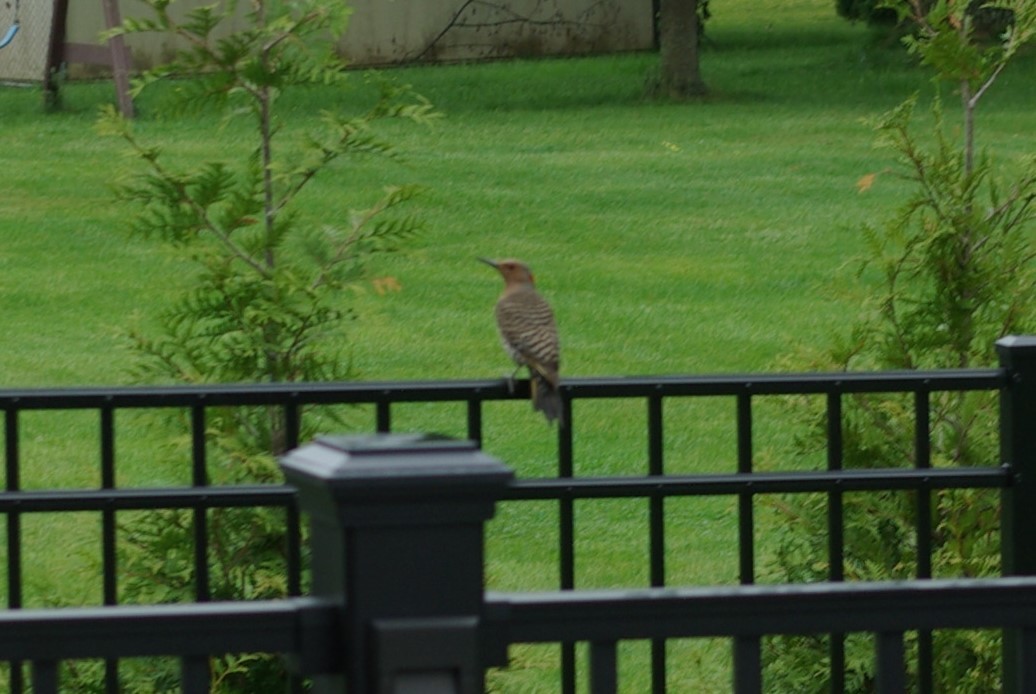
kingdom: Animalia
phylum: Chordata
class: Aves
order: Piciformes
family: Picidae
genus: Colaptes
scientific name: Colaptes auratus
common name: Northern flicker
